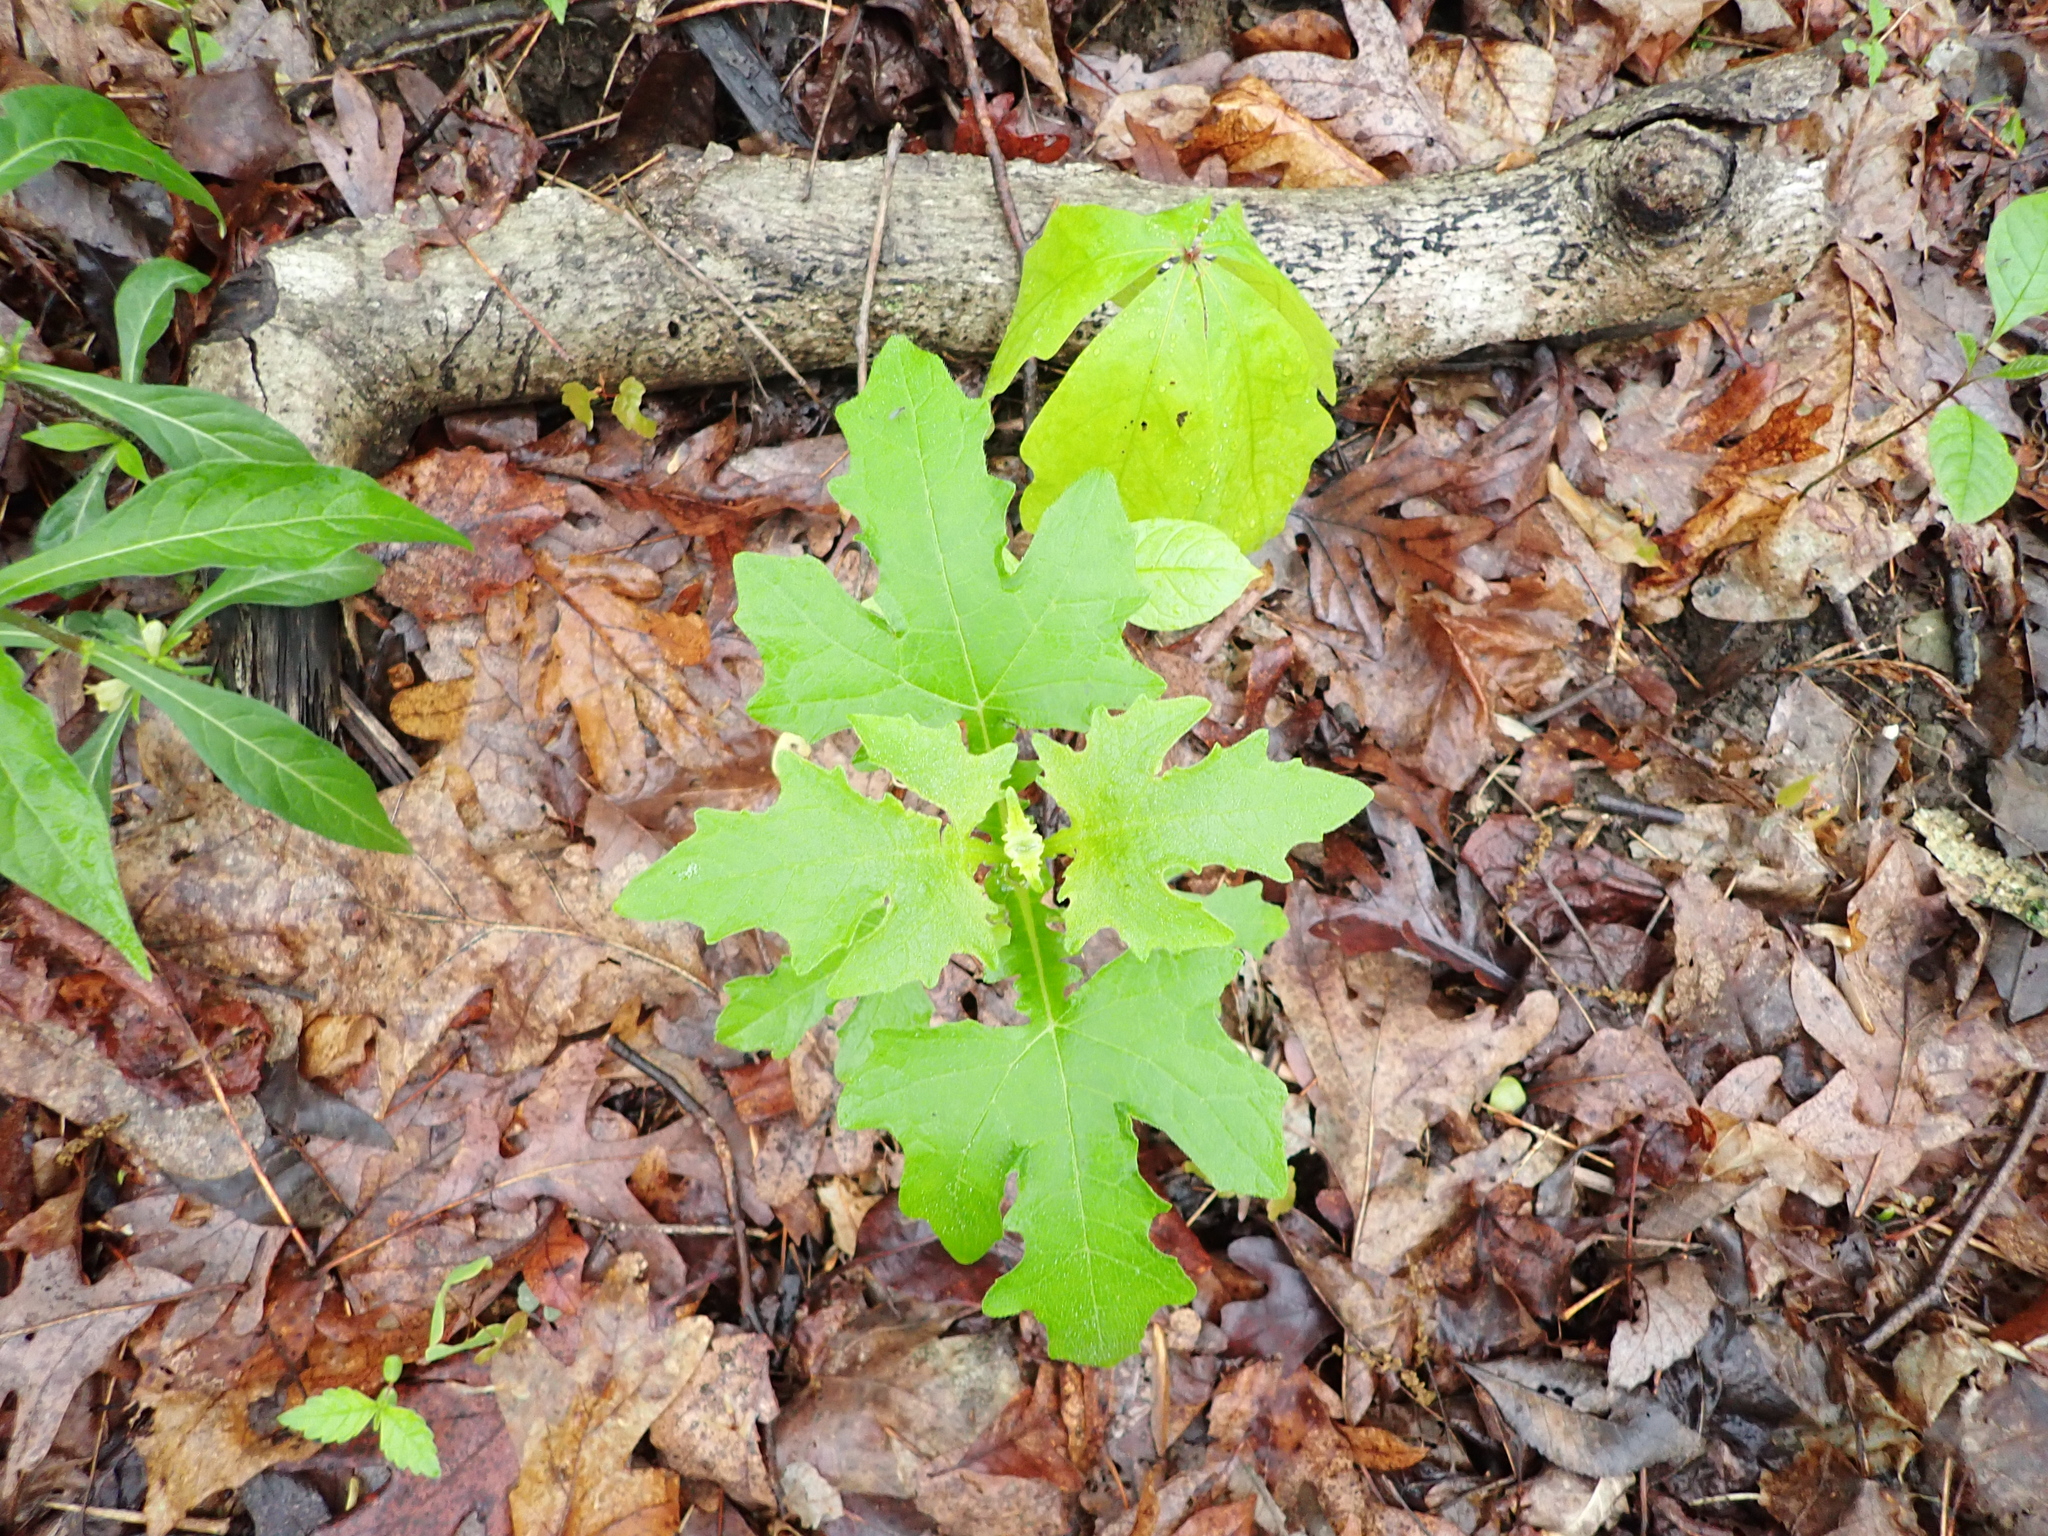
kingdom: Plantae
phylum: Tracheophyta
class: Magnoliopsida
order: Asterales
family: Asteraceae
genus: Smallanthus
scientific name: Smallanthus uvedalia
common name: Bear's-foot
